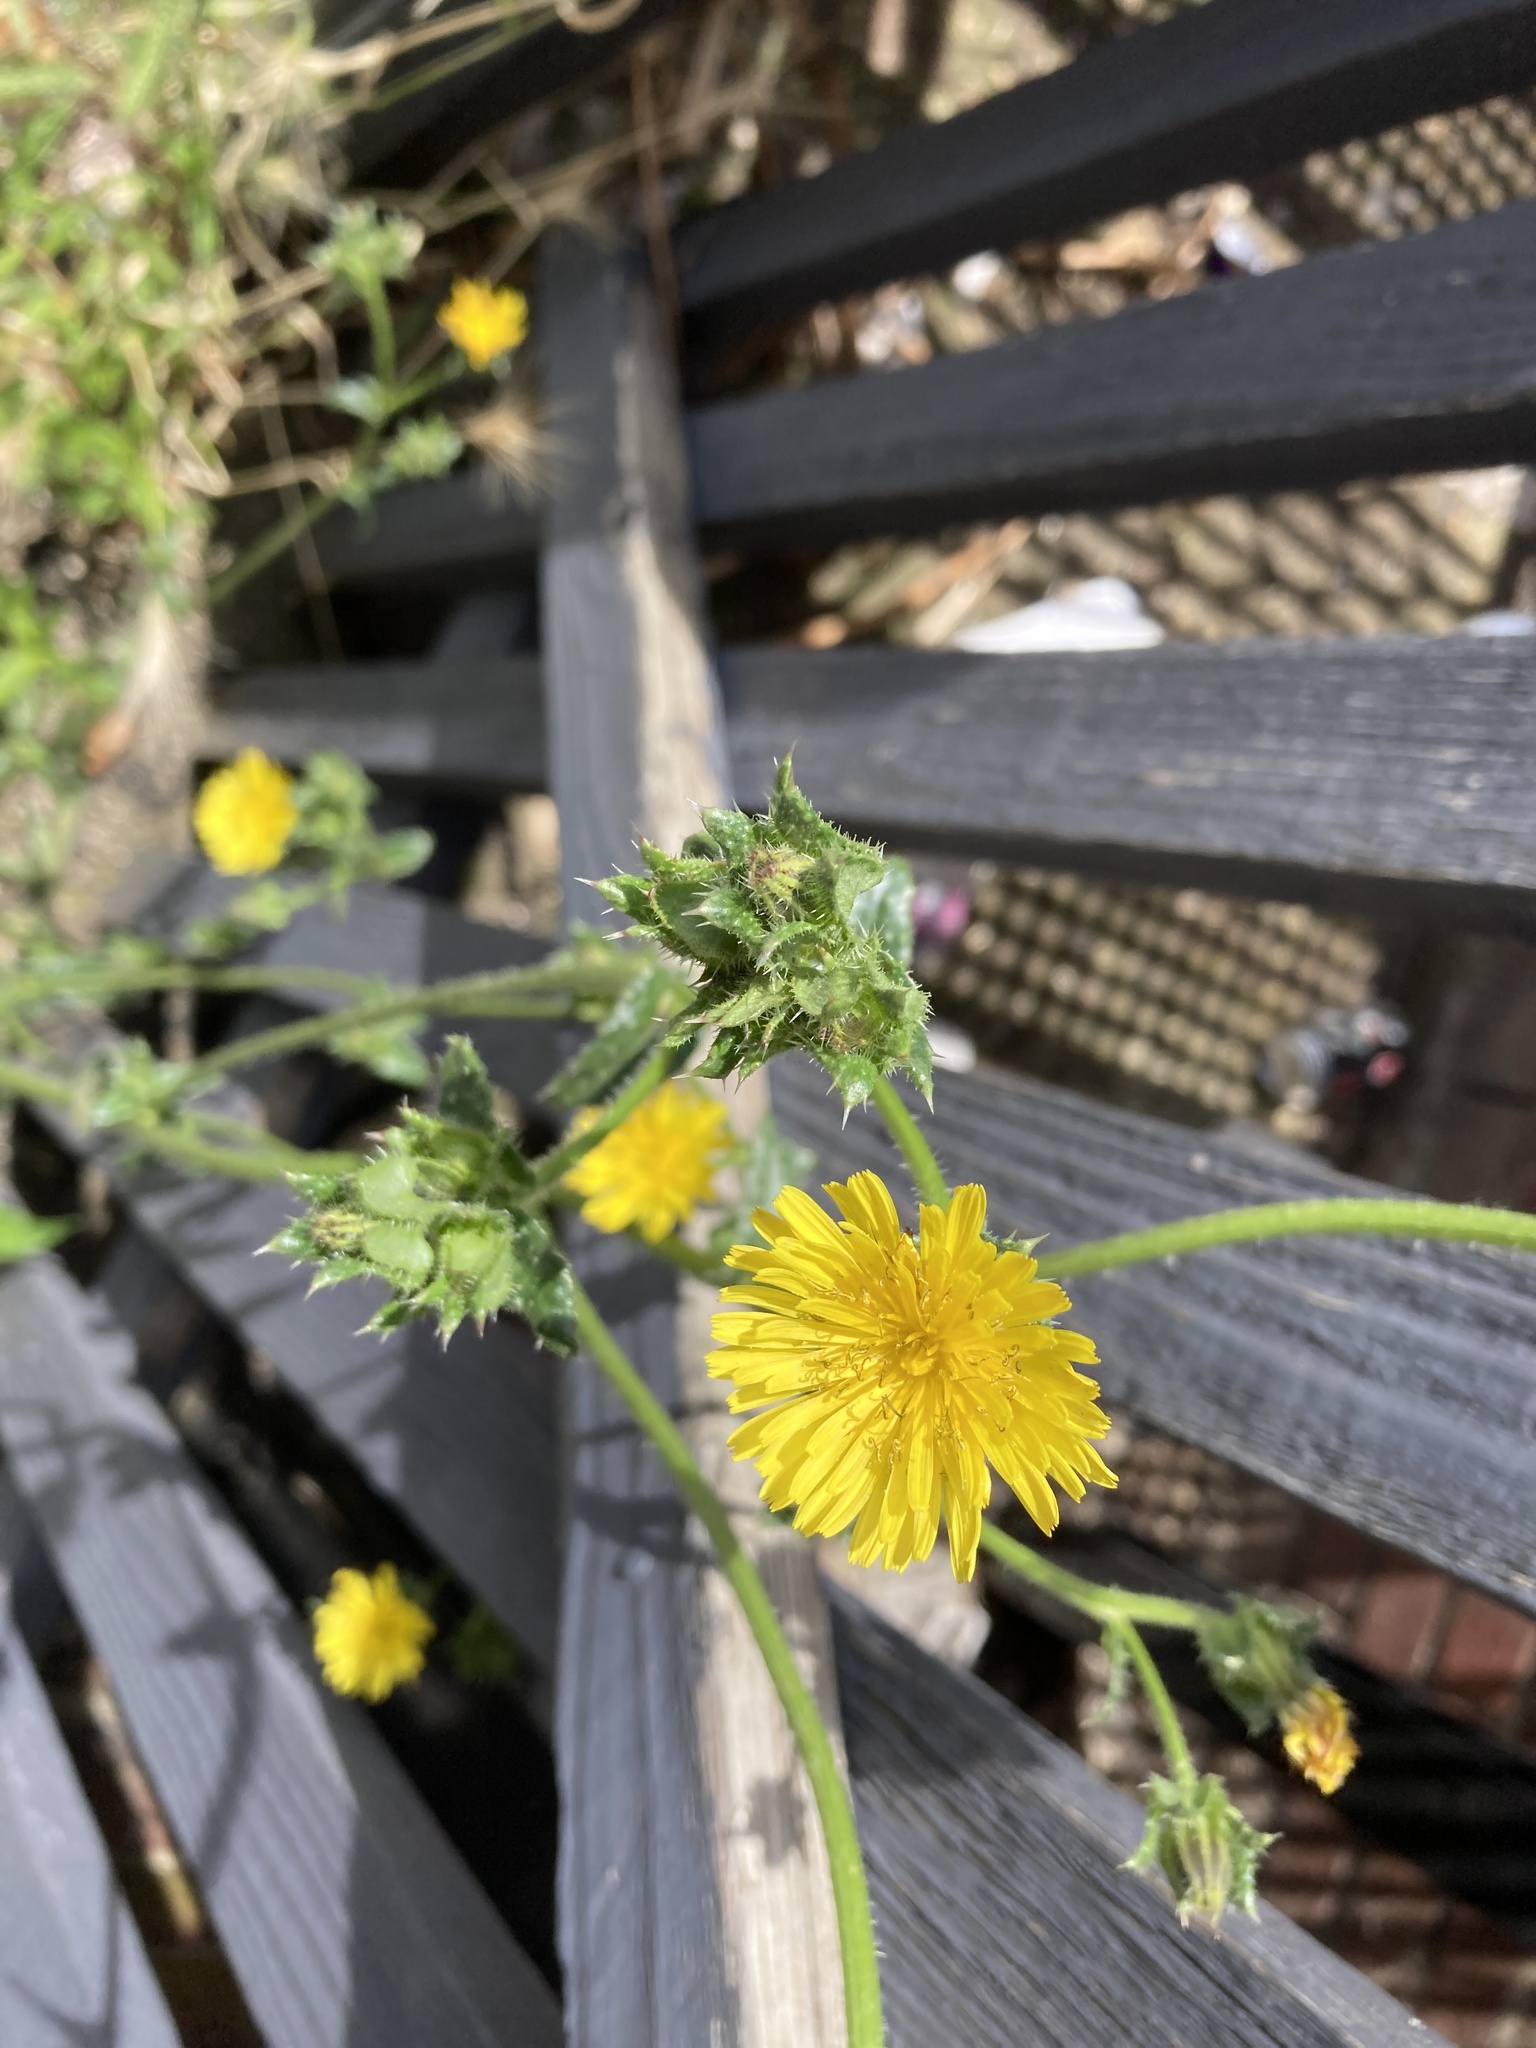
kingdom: Plantae
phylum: Tracheophyta
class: Magnoliopsida
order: Asterales
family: Asteraceae
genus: Helminthotheca
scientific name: Helminthotheca echioides
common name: Ox-tongue
